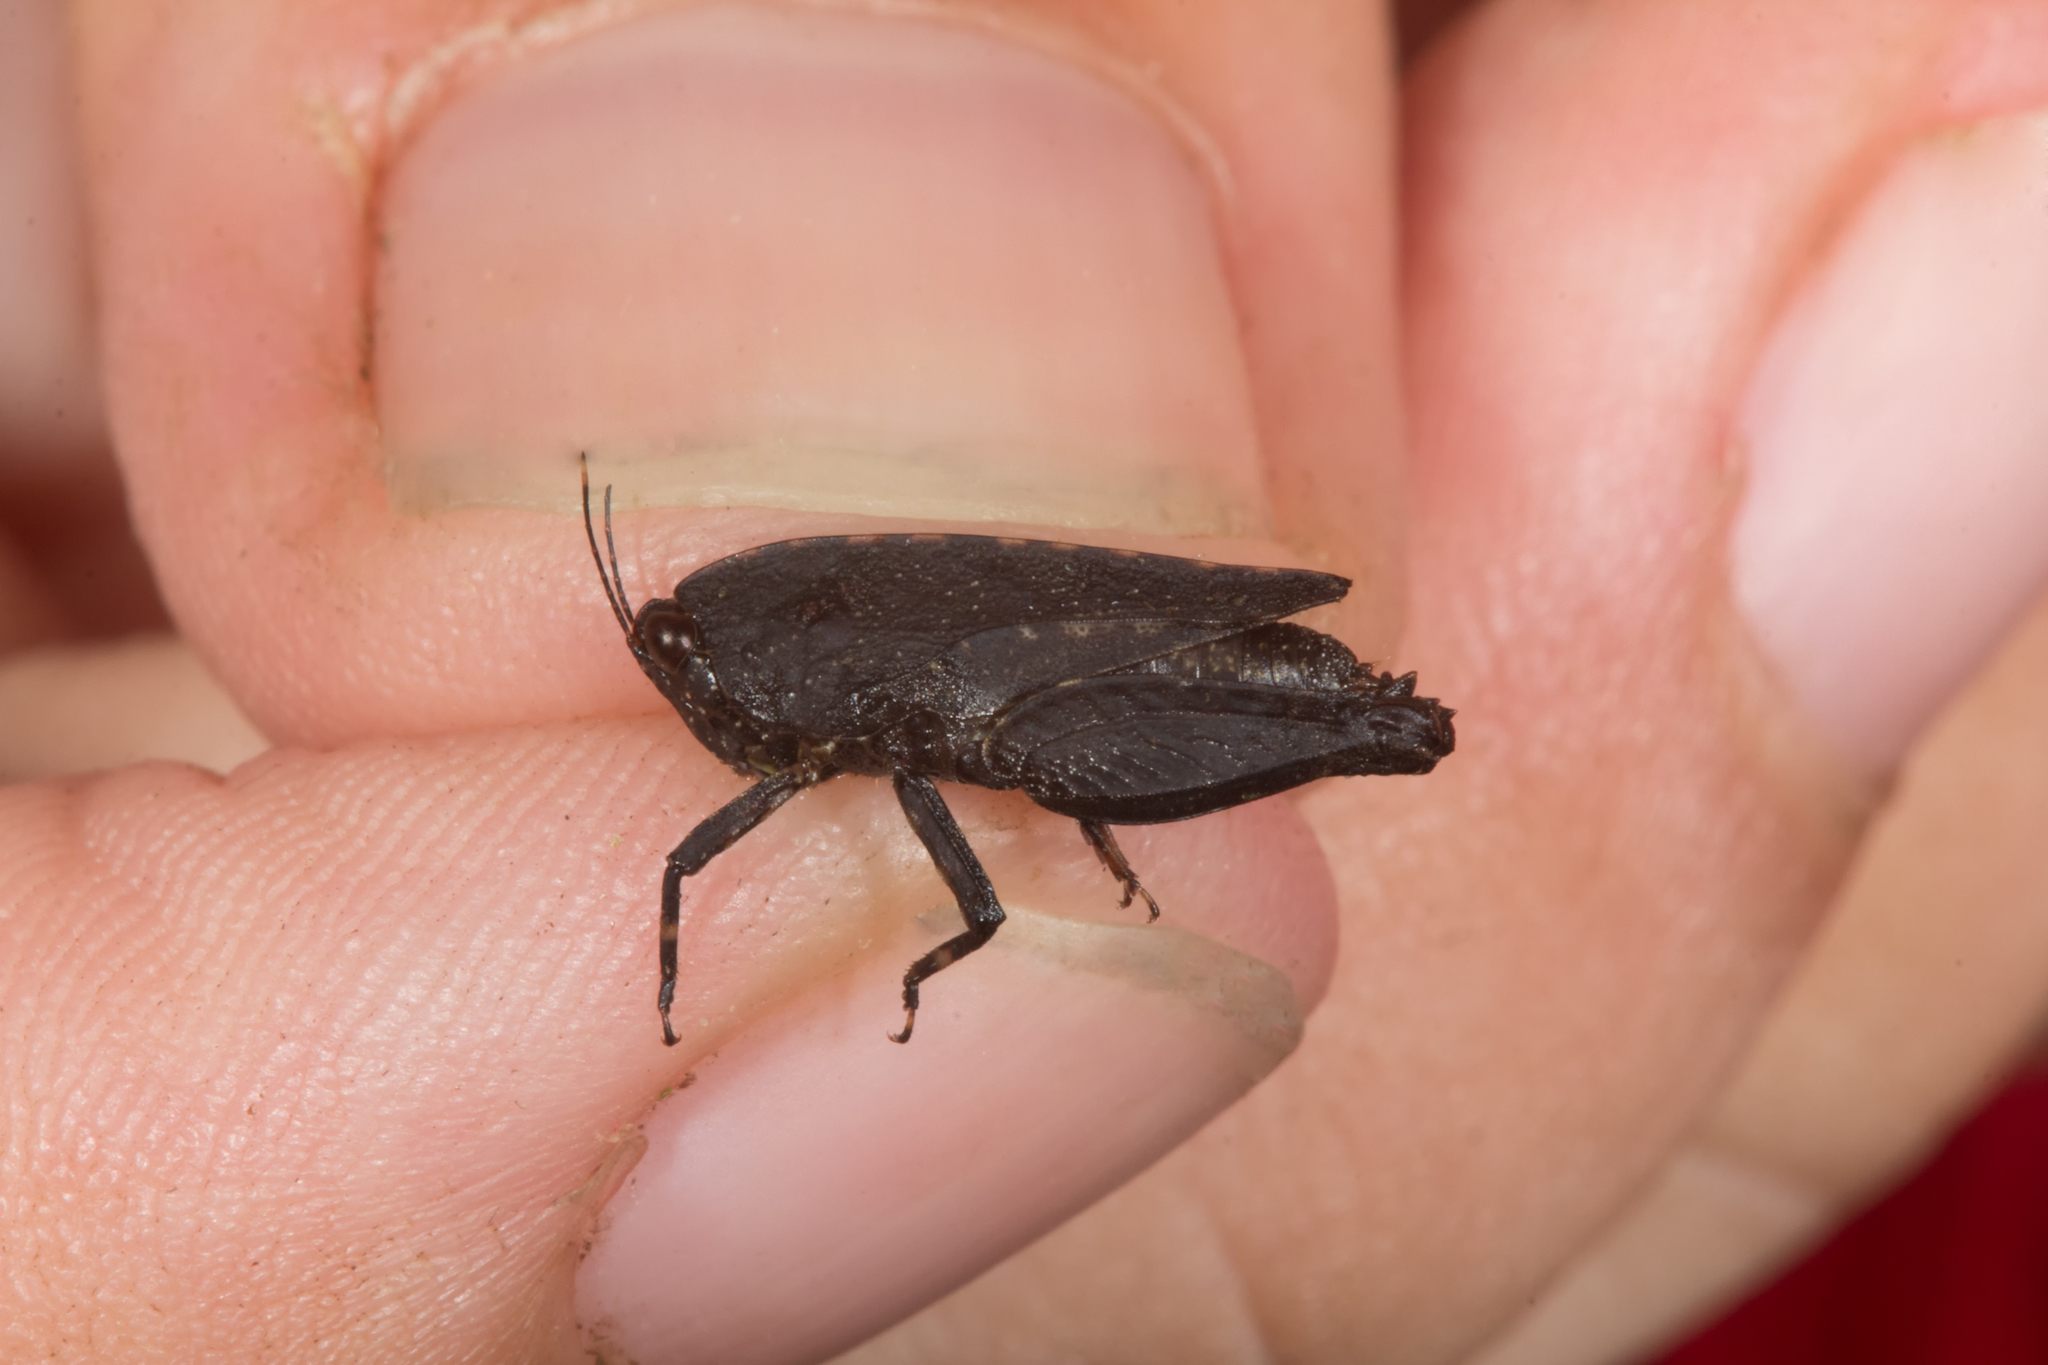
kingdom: Animalia
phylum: Arthropoda
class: Insecta
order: Orthoptera
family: Tetrigidae
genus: Coptottigia
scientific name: Coptottigia cristata
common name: Seychelles crested groundhopper
